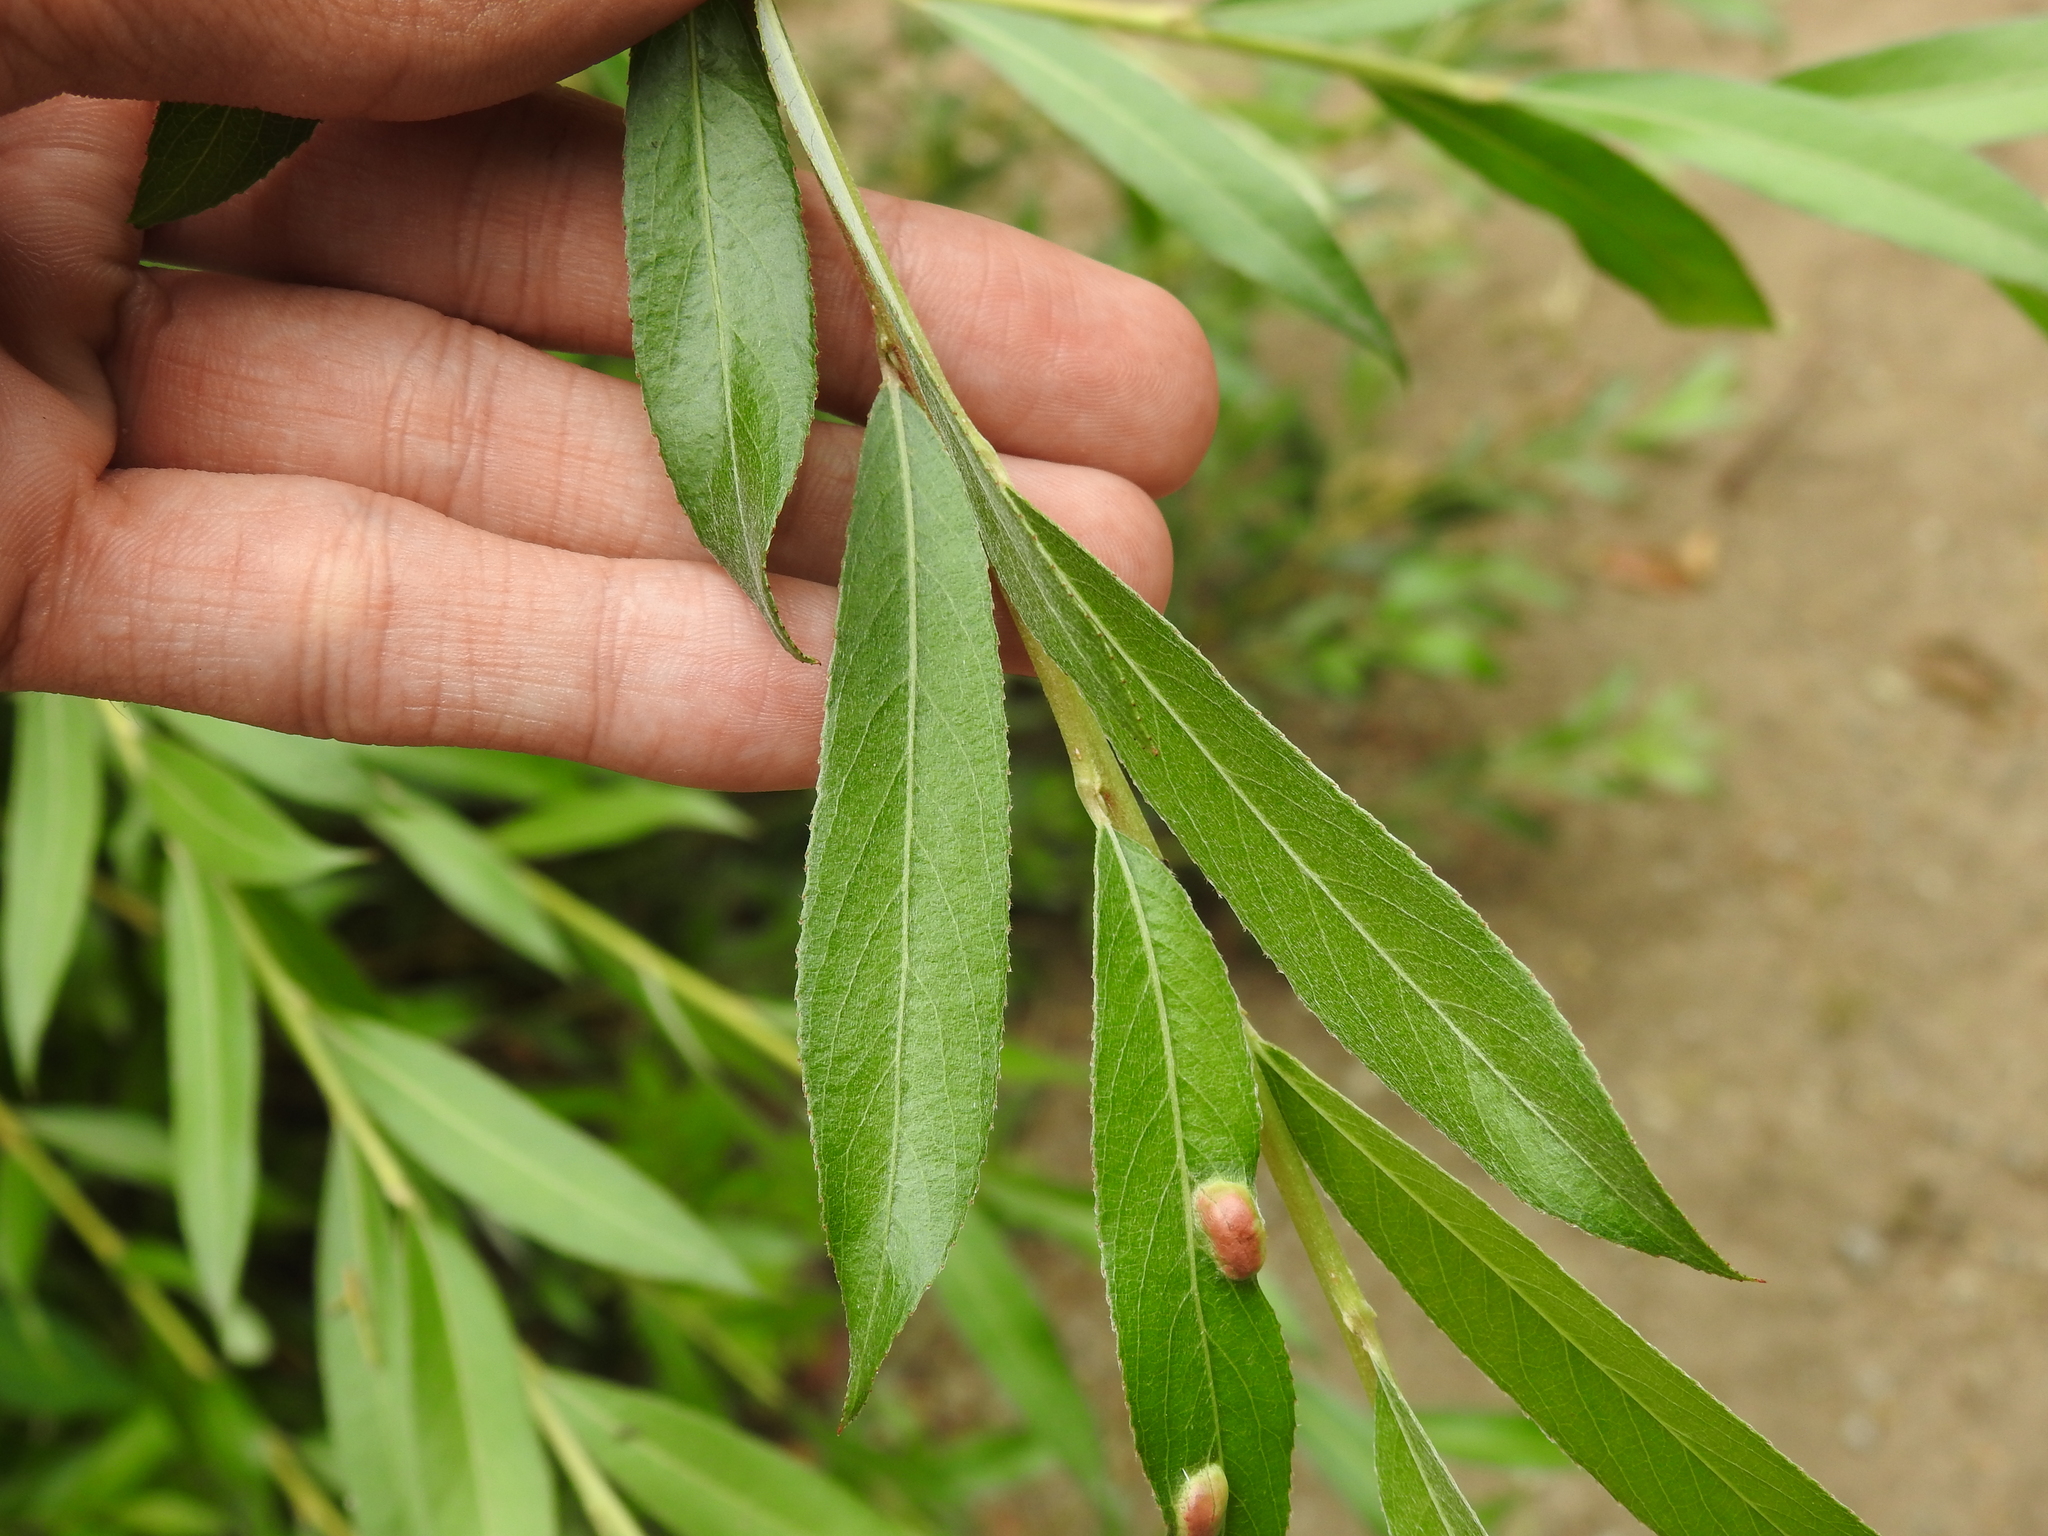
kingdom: Plantae
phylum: Tracheophyta
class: Magnoliopsida
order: Malpighiales
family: Salicaceae
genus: Salix
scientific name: Salix alba
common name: White willow
